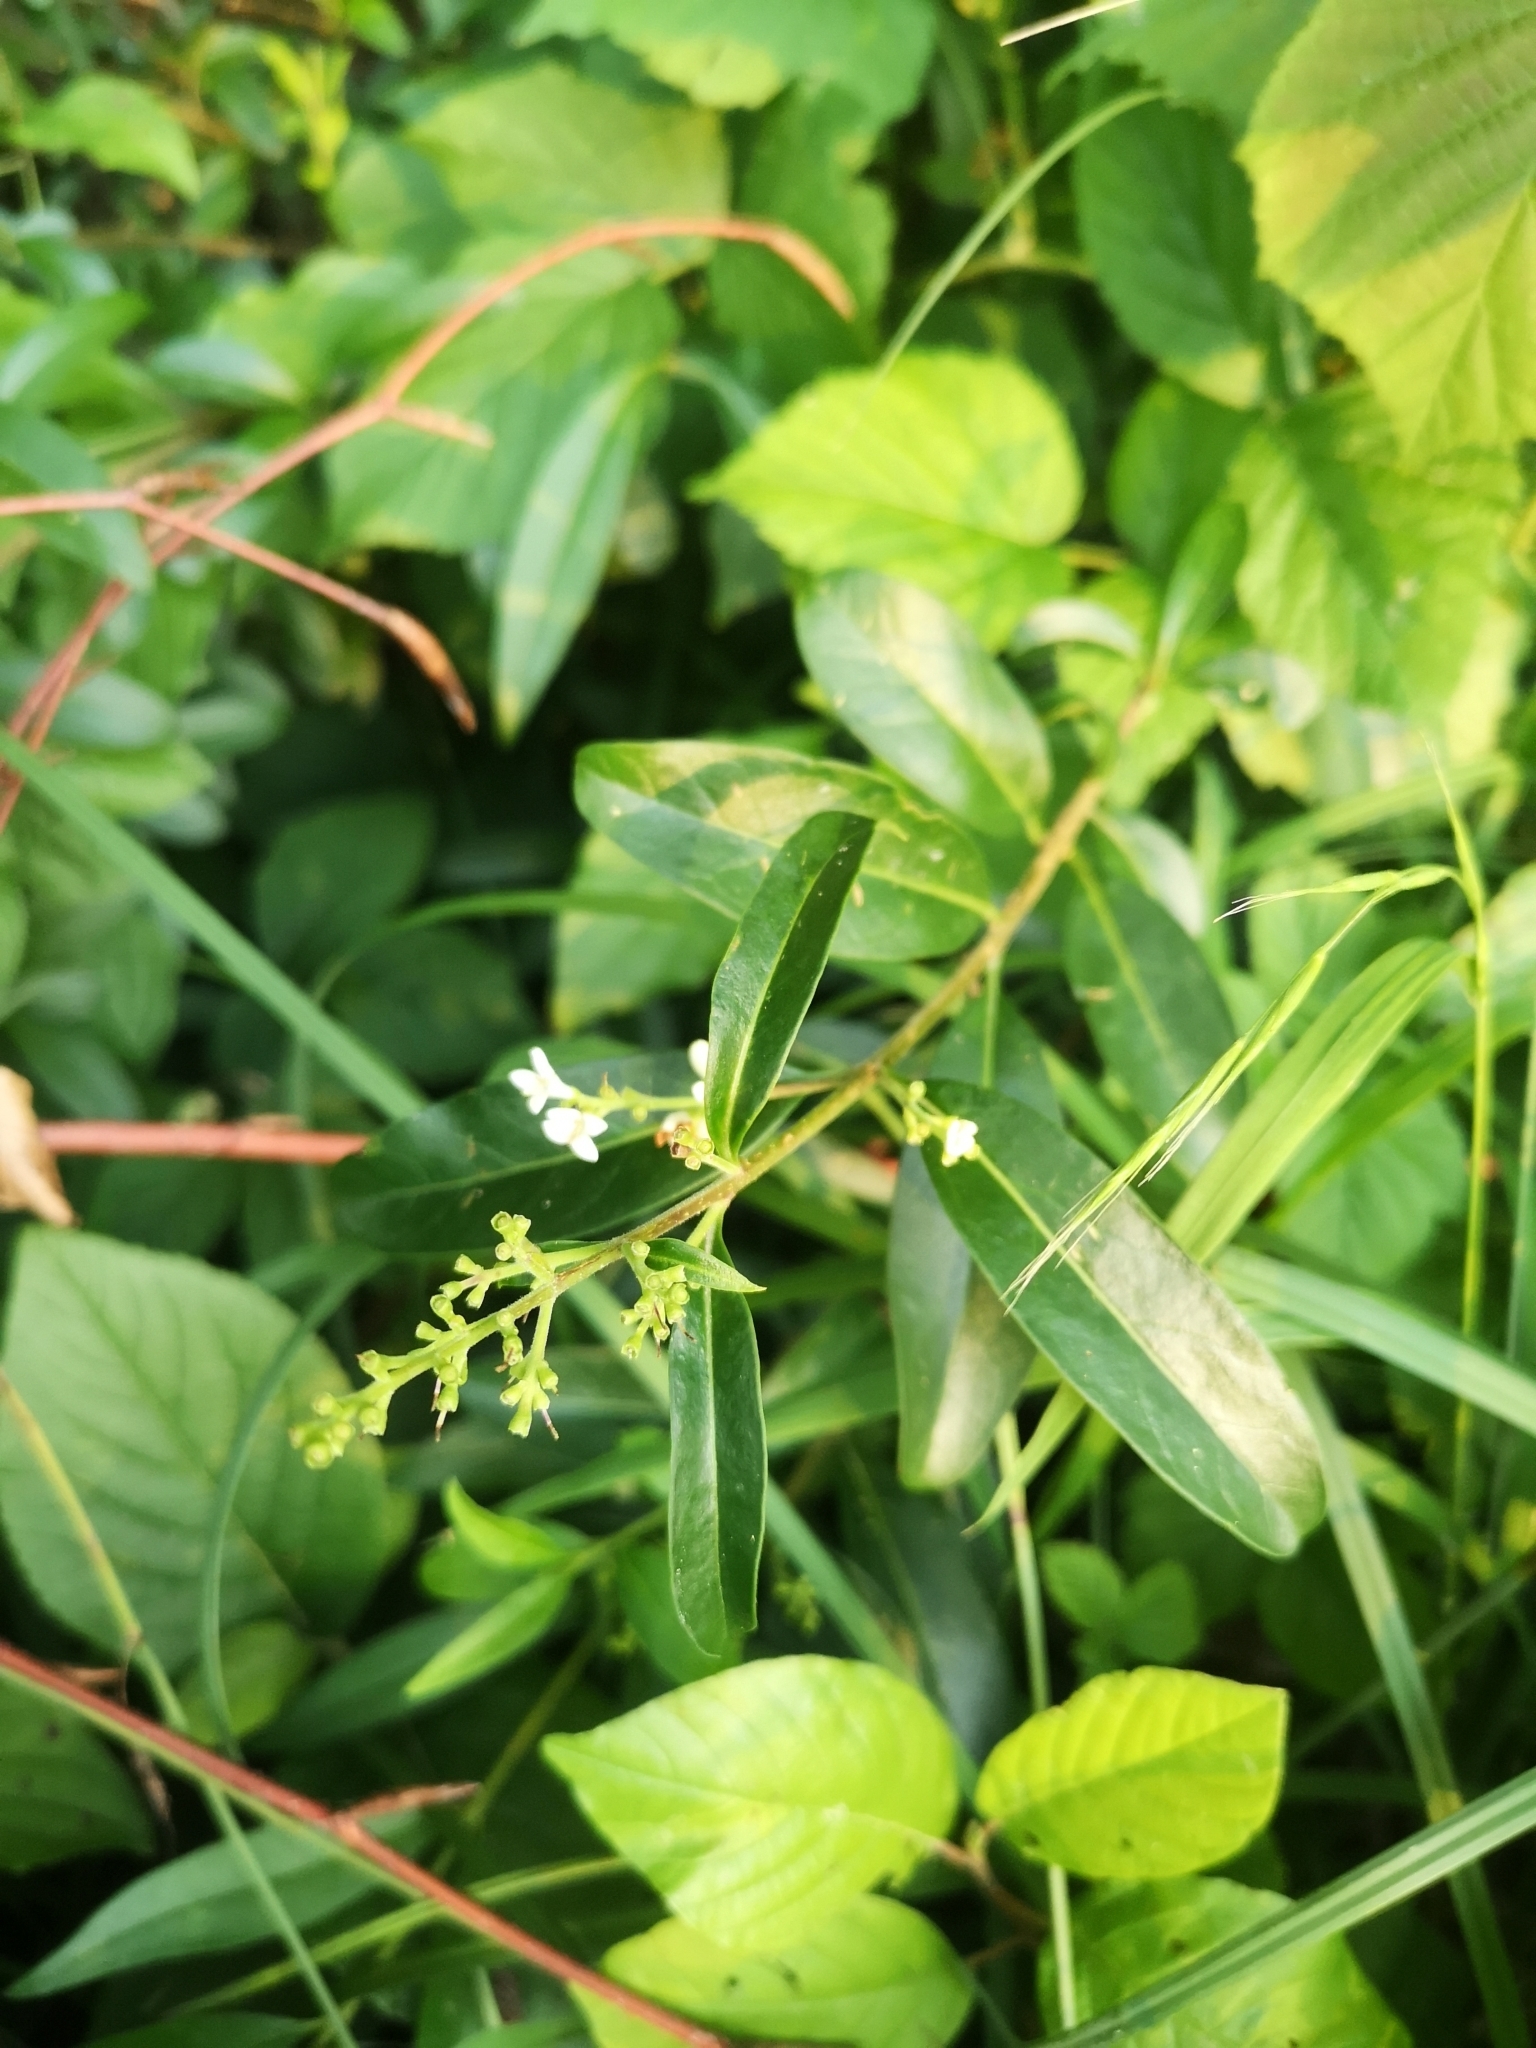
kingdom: Plantae
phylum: Tracheophyta
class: Magnoliopsida
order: Lamiales
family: Oleaceae
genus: Ligustrum
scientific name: Ligustrum vulgare
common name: Wild privet
